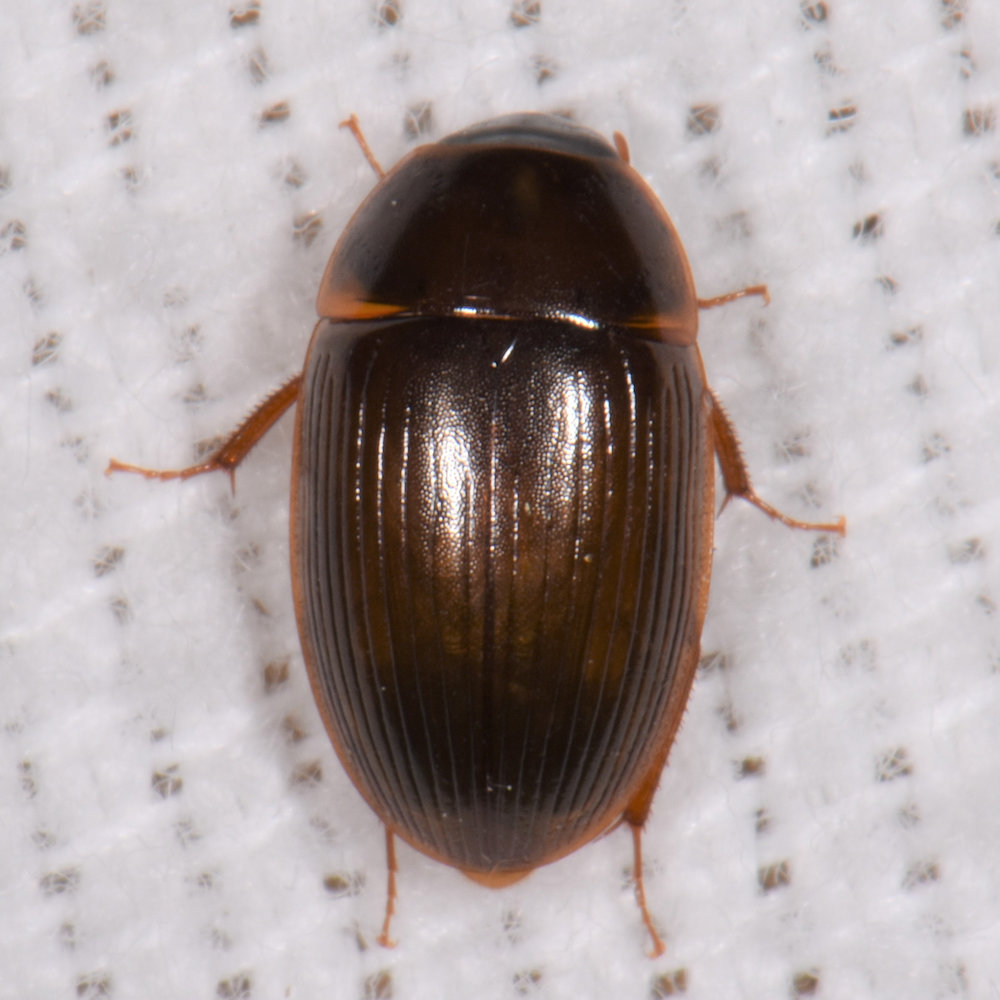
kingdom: Animalia
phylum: Arthropoda
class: Insecta
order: Coleoptera
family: Hydrophilidae
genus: Cymbiodyta
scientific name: Cymbiodyta bifida
